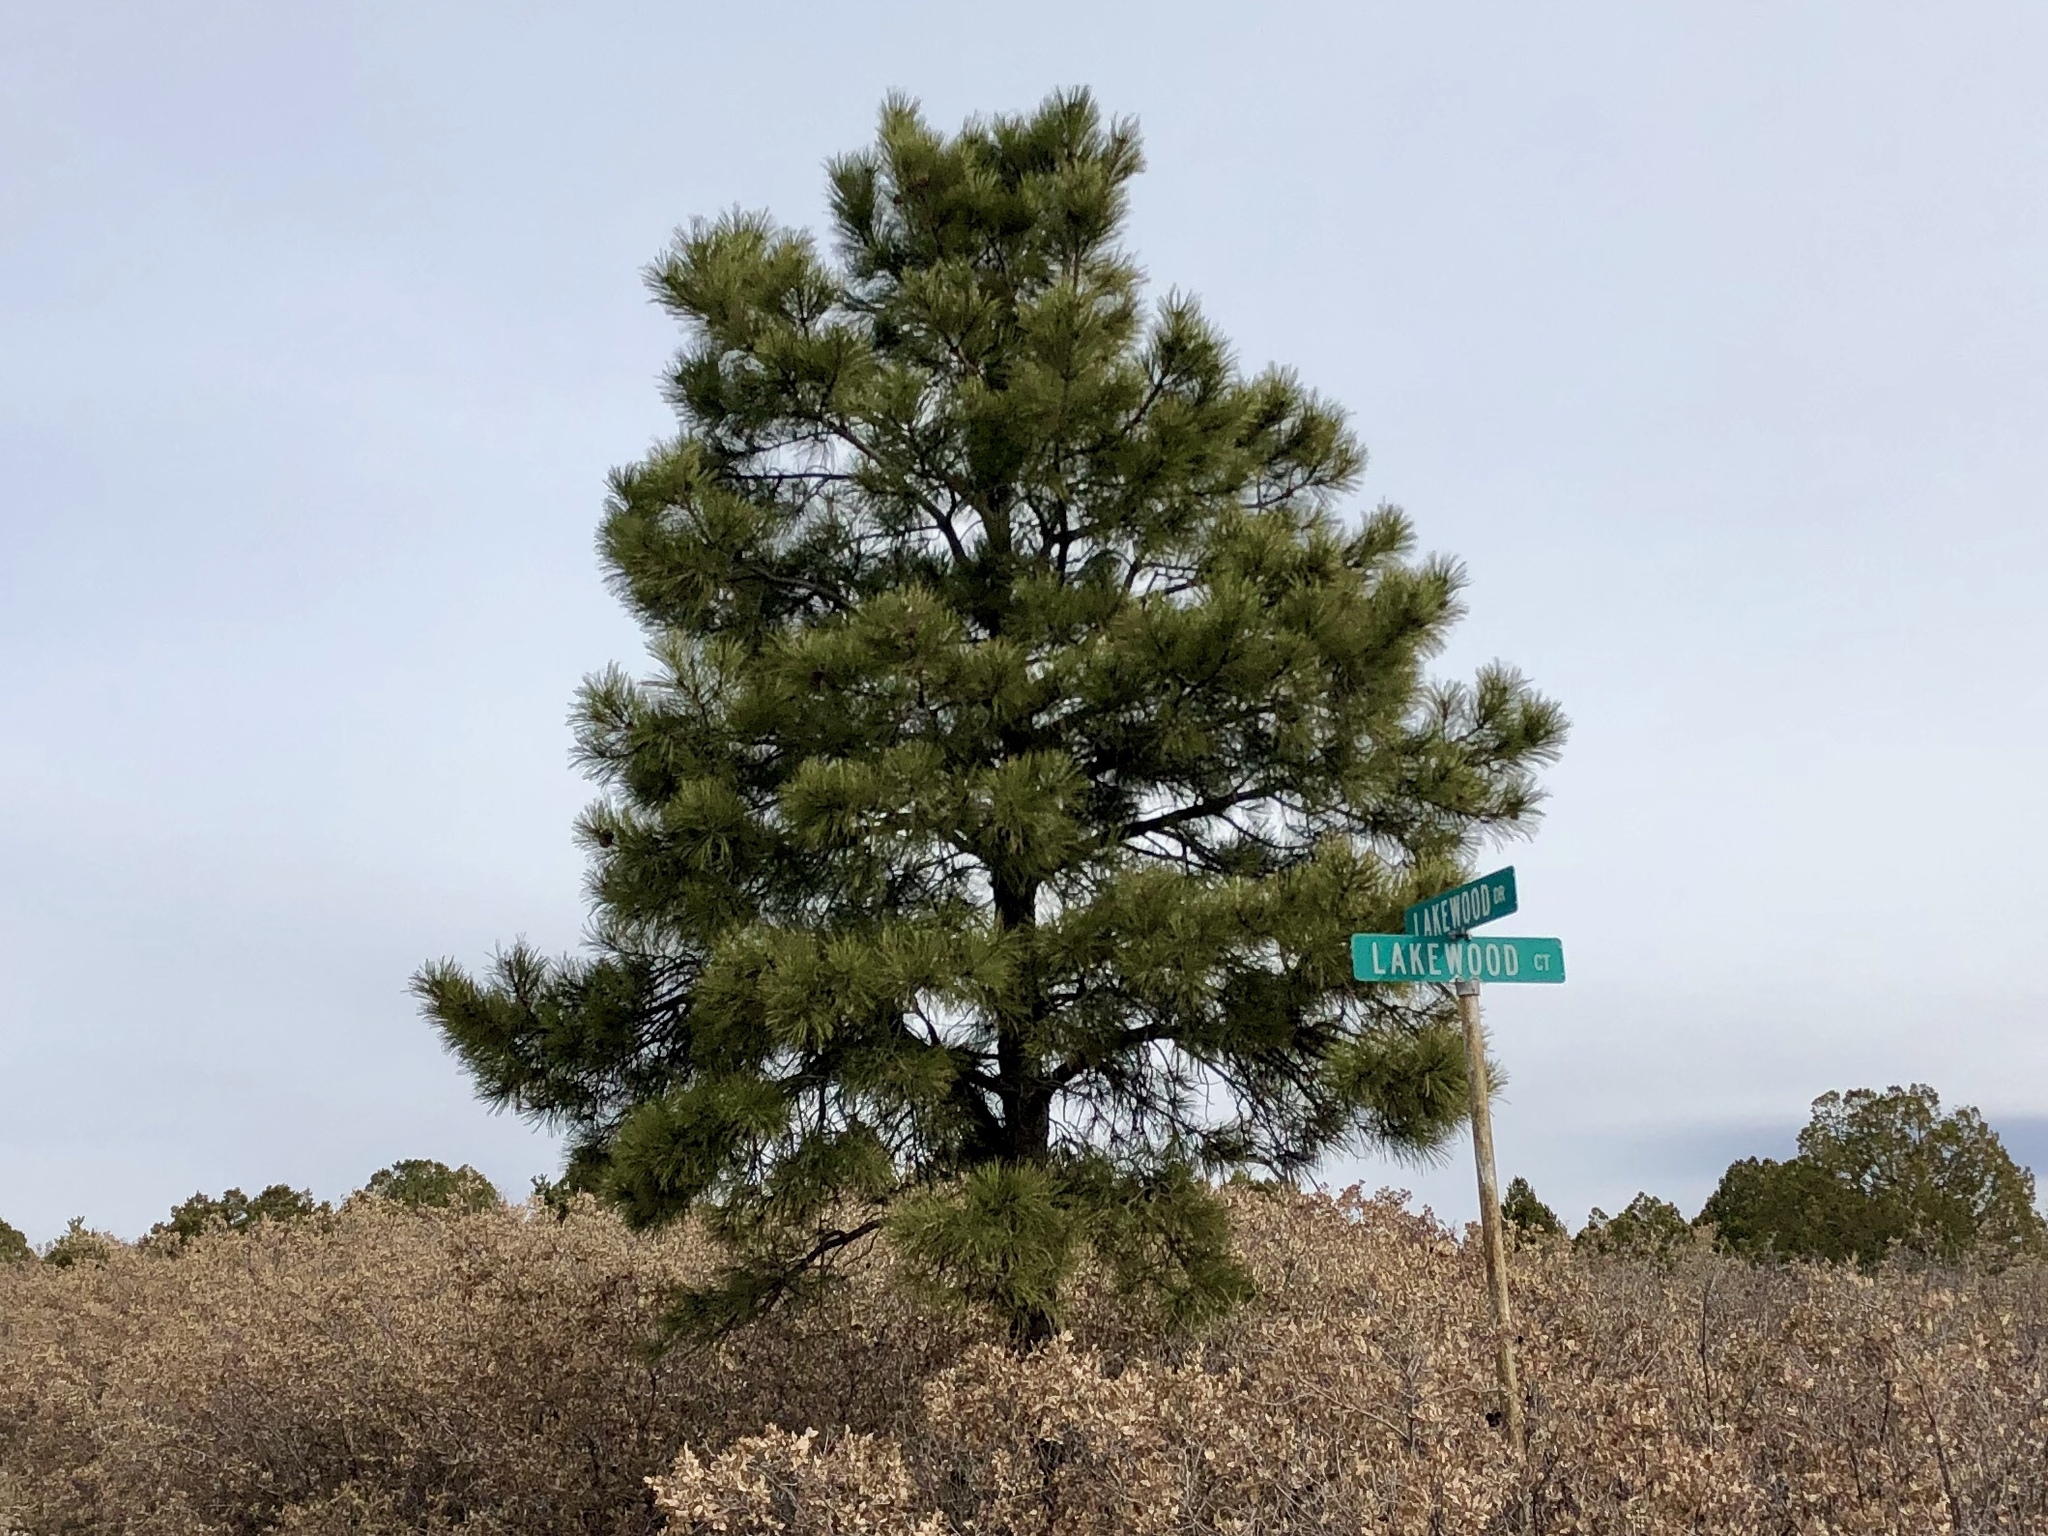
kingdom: Plantae
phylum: Tracheophyta
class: Pinopsida
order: Pinales
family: Pinaceae
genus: Pinus
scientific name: Pinus ponderosa
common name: Western yellow-pine
